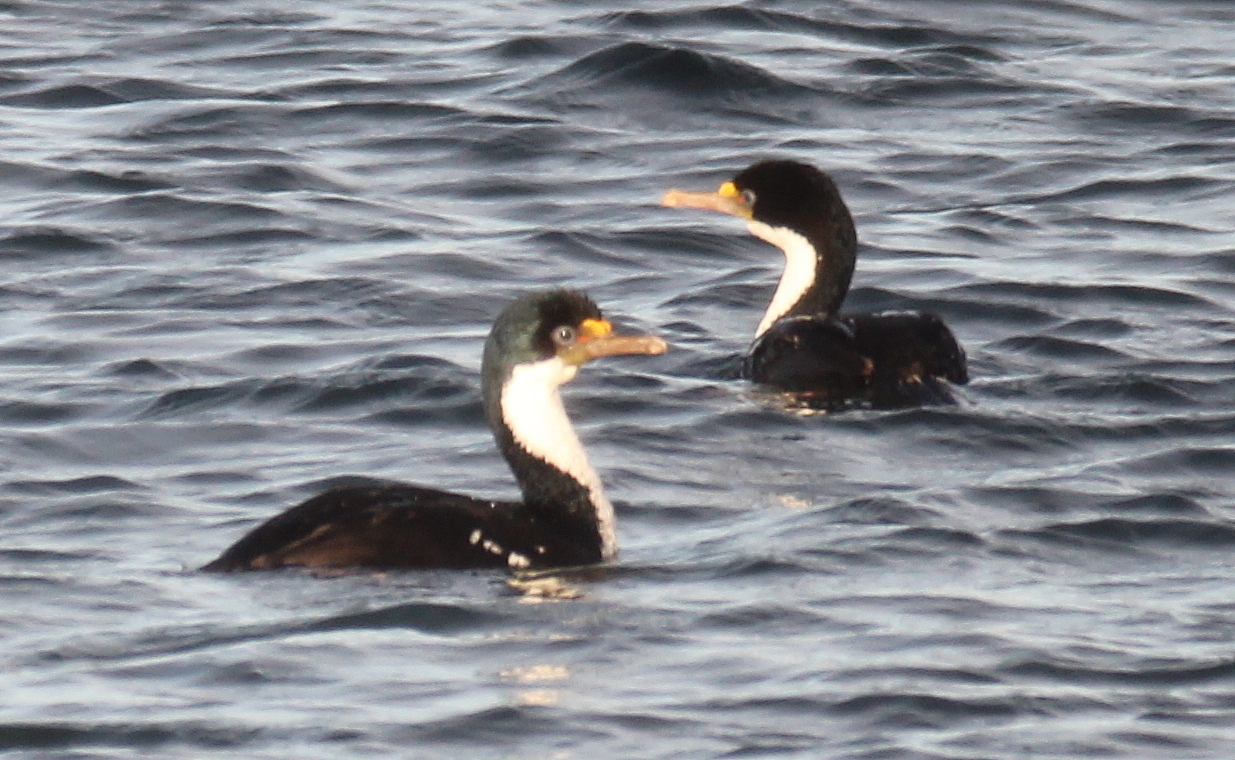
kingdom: Animalia
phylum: Chordata
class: Aves
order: Suliformes
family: Phalacrocoracidae
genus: Leucocarbo
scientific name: Leucocarbo atriceps
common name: Imperial shag
